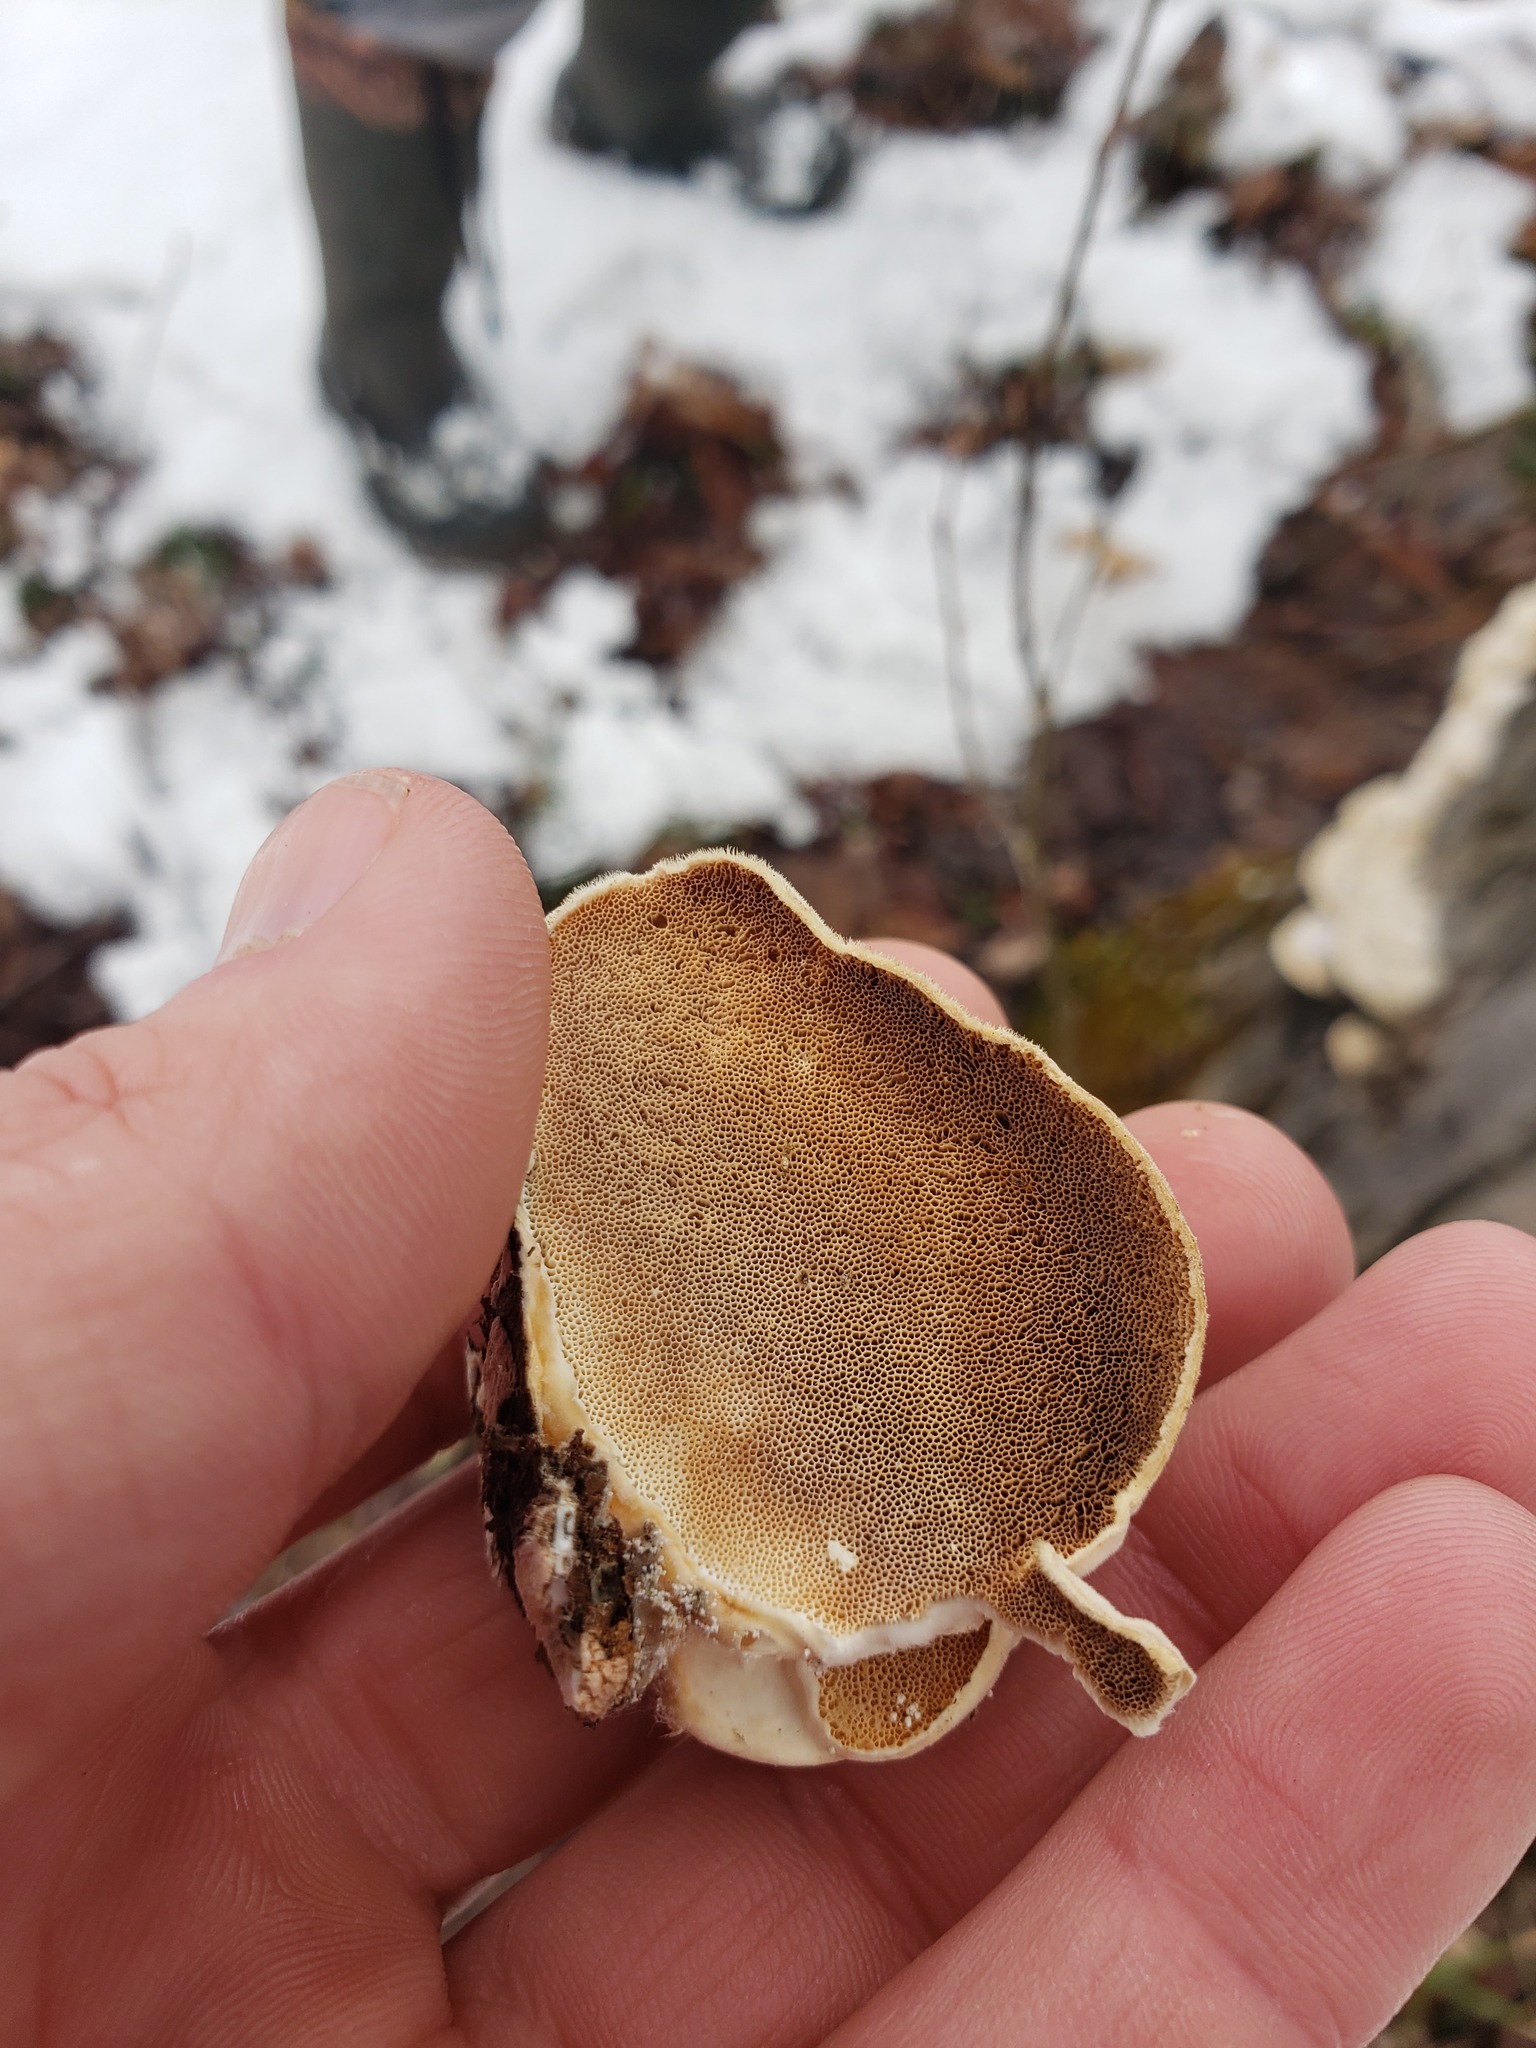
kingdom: Fungi
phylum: Basidiomycota
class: Agaricomycetes
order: Polyporales
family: Polyporaceae
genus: Trametes
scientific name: Trametes pubescens
